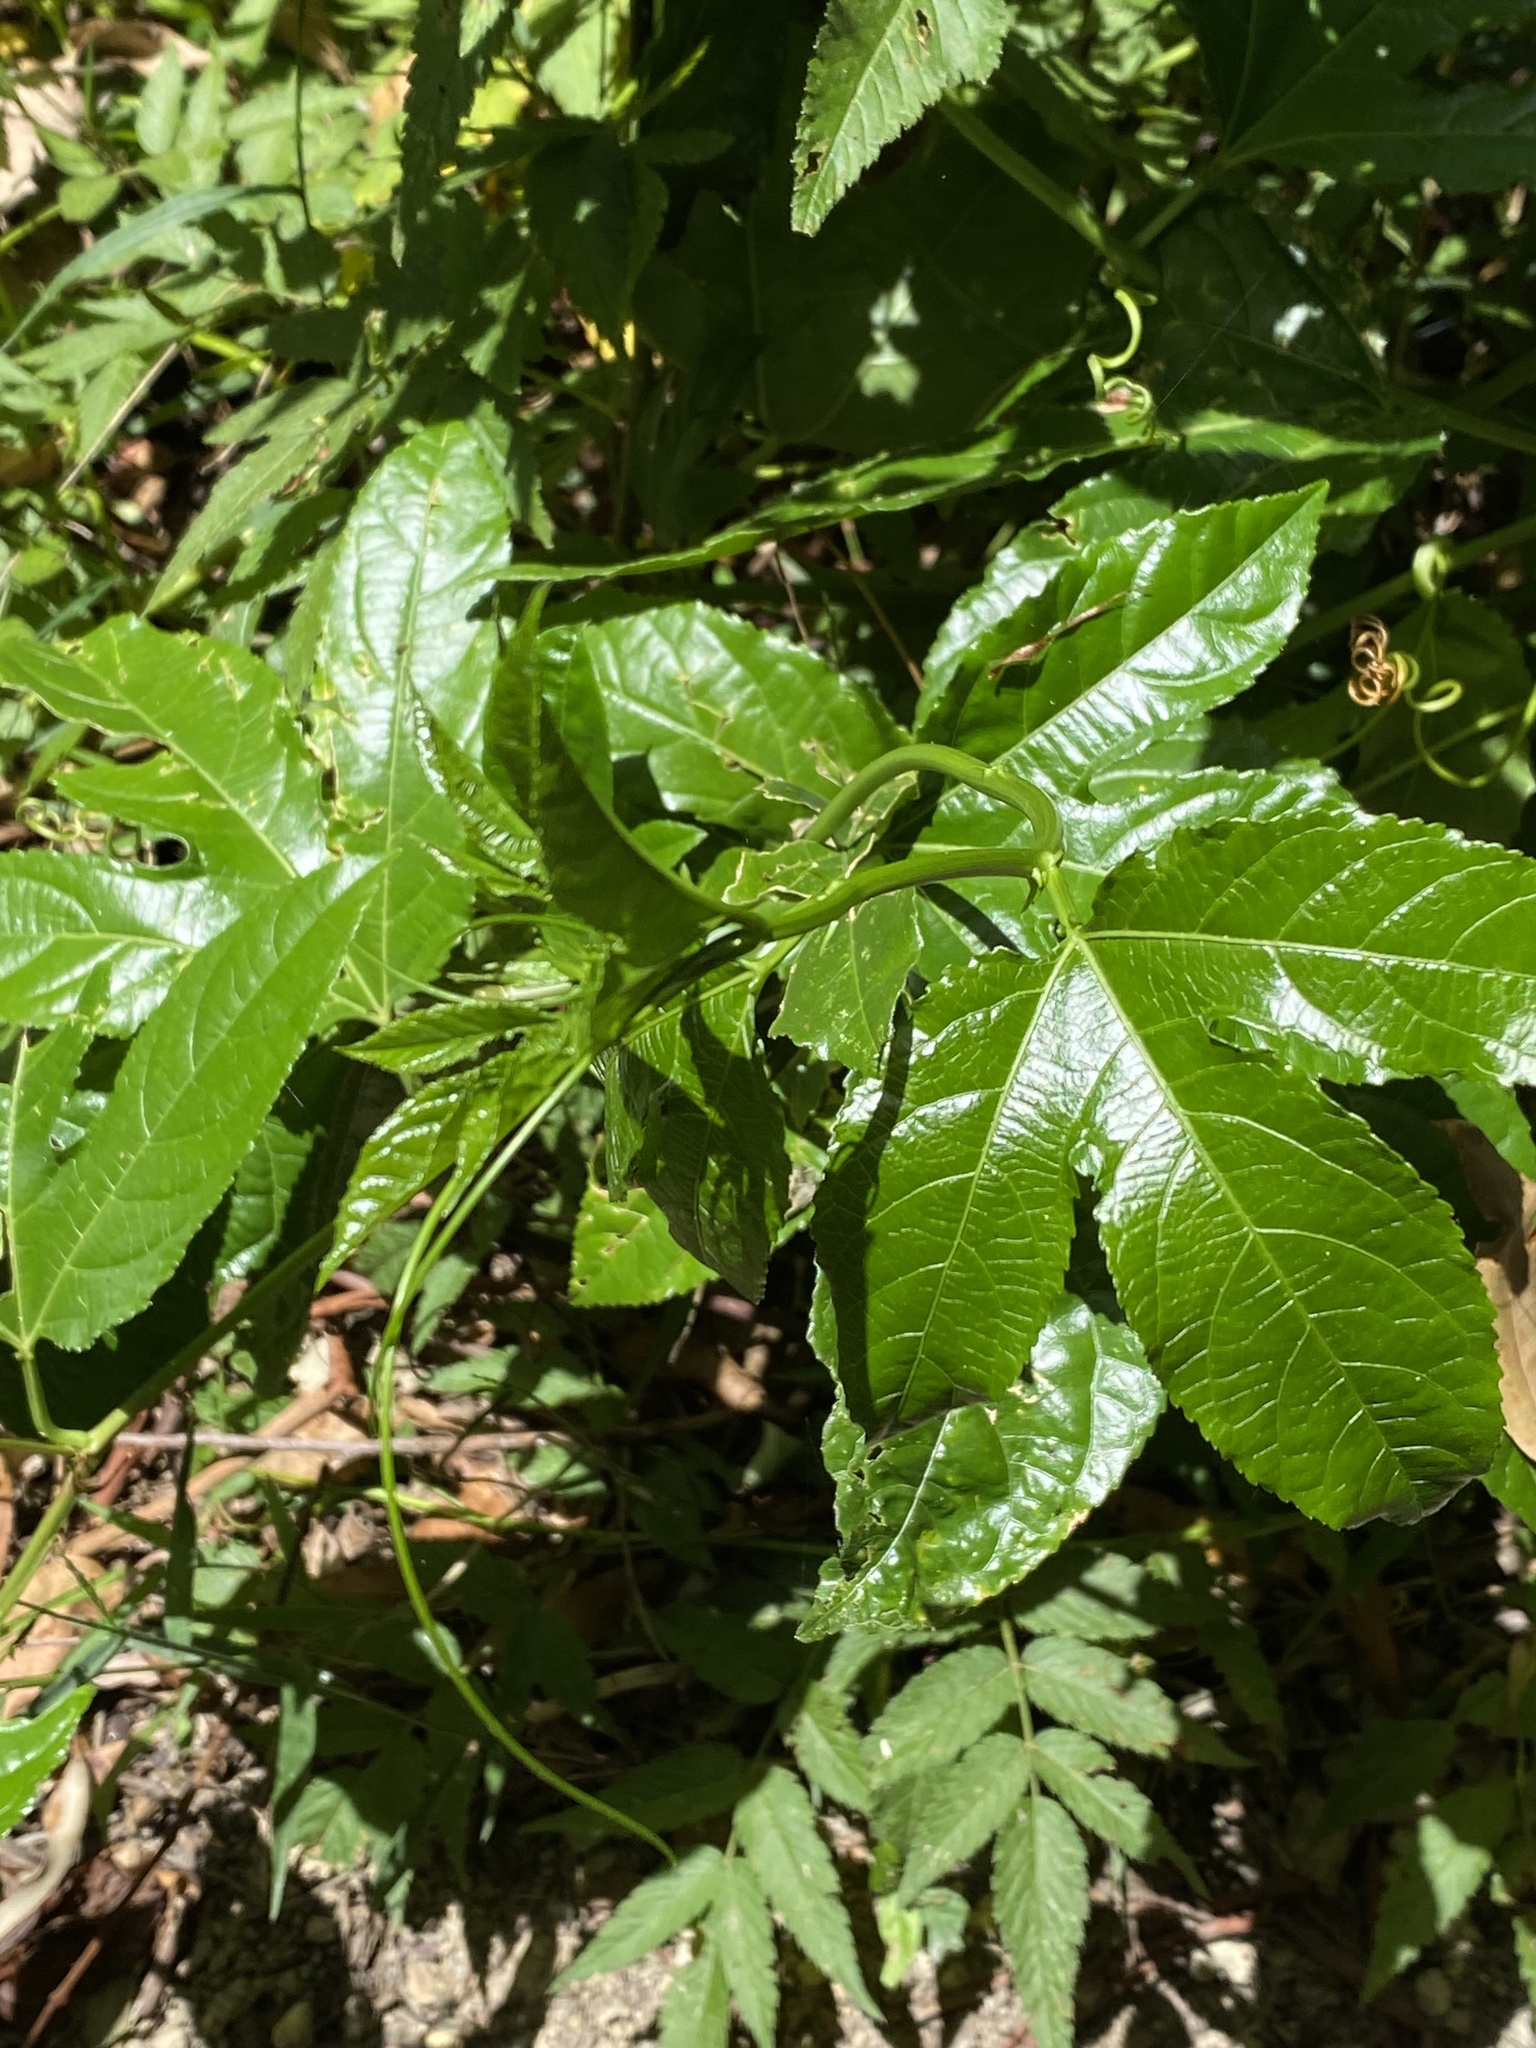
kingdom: Plantae
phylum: Tracheophyta
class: Magnoliopsida
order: Malpighiales
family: Passifloraceae
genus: Passiflora
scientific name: Passiflora edulis
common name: Purple granadilla
